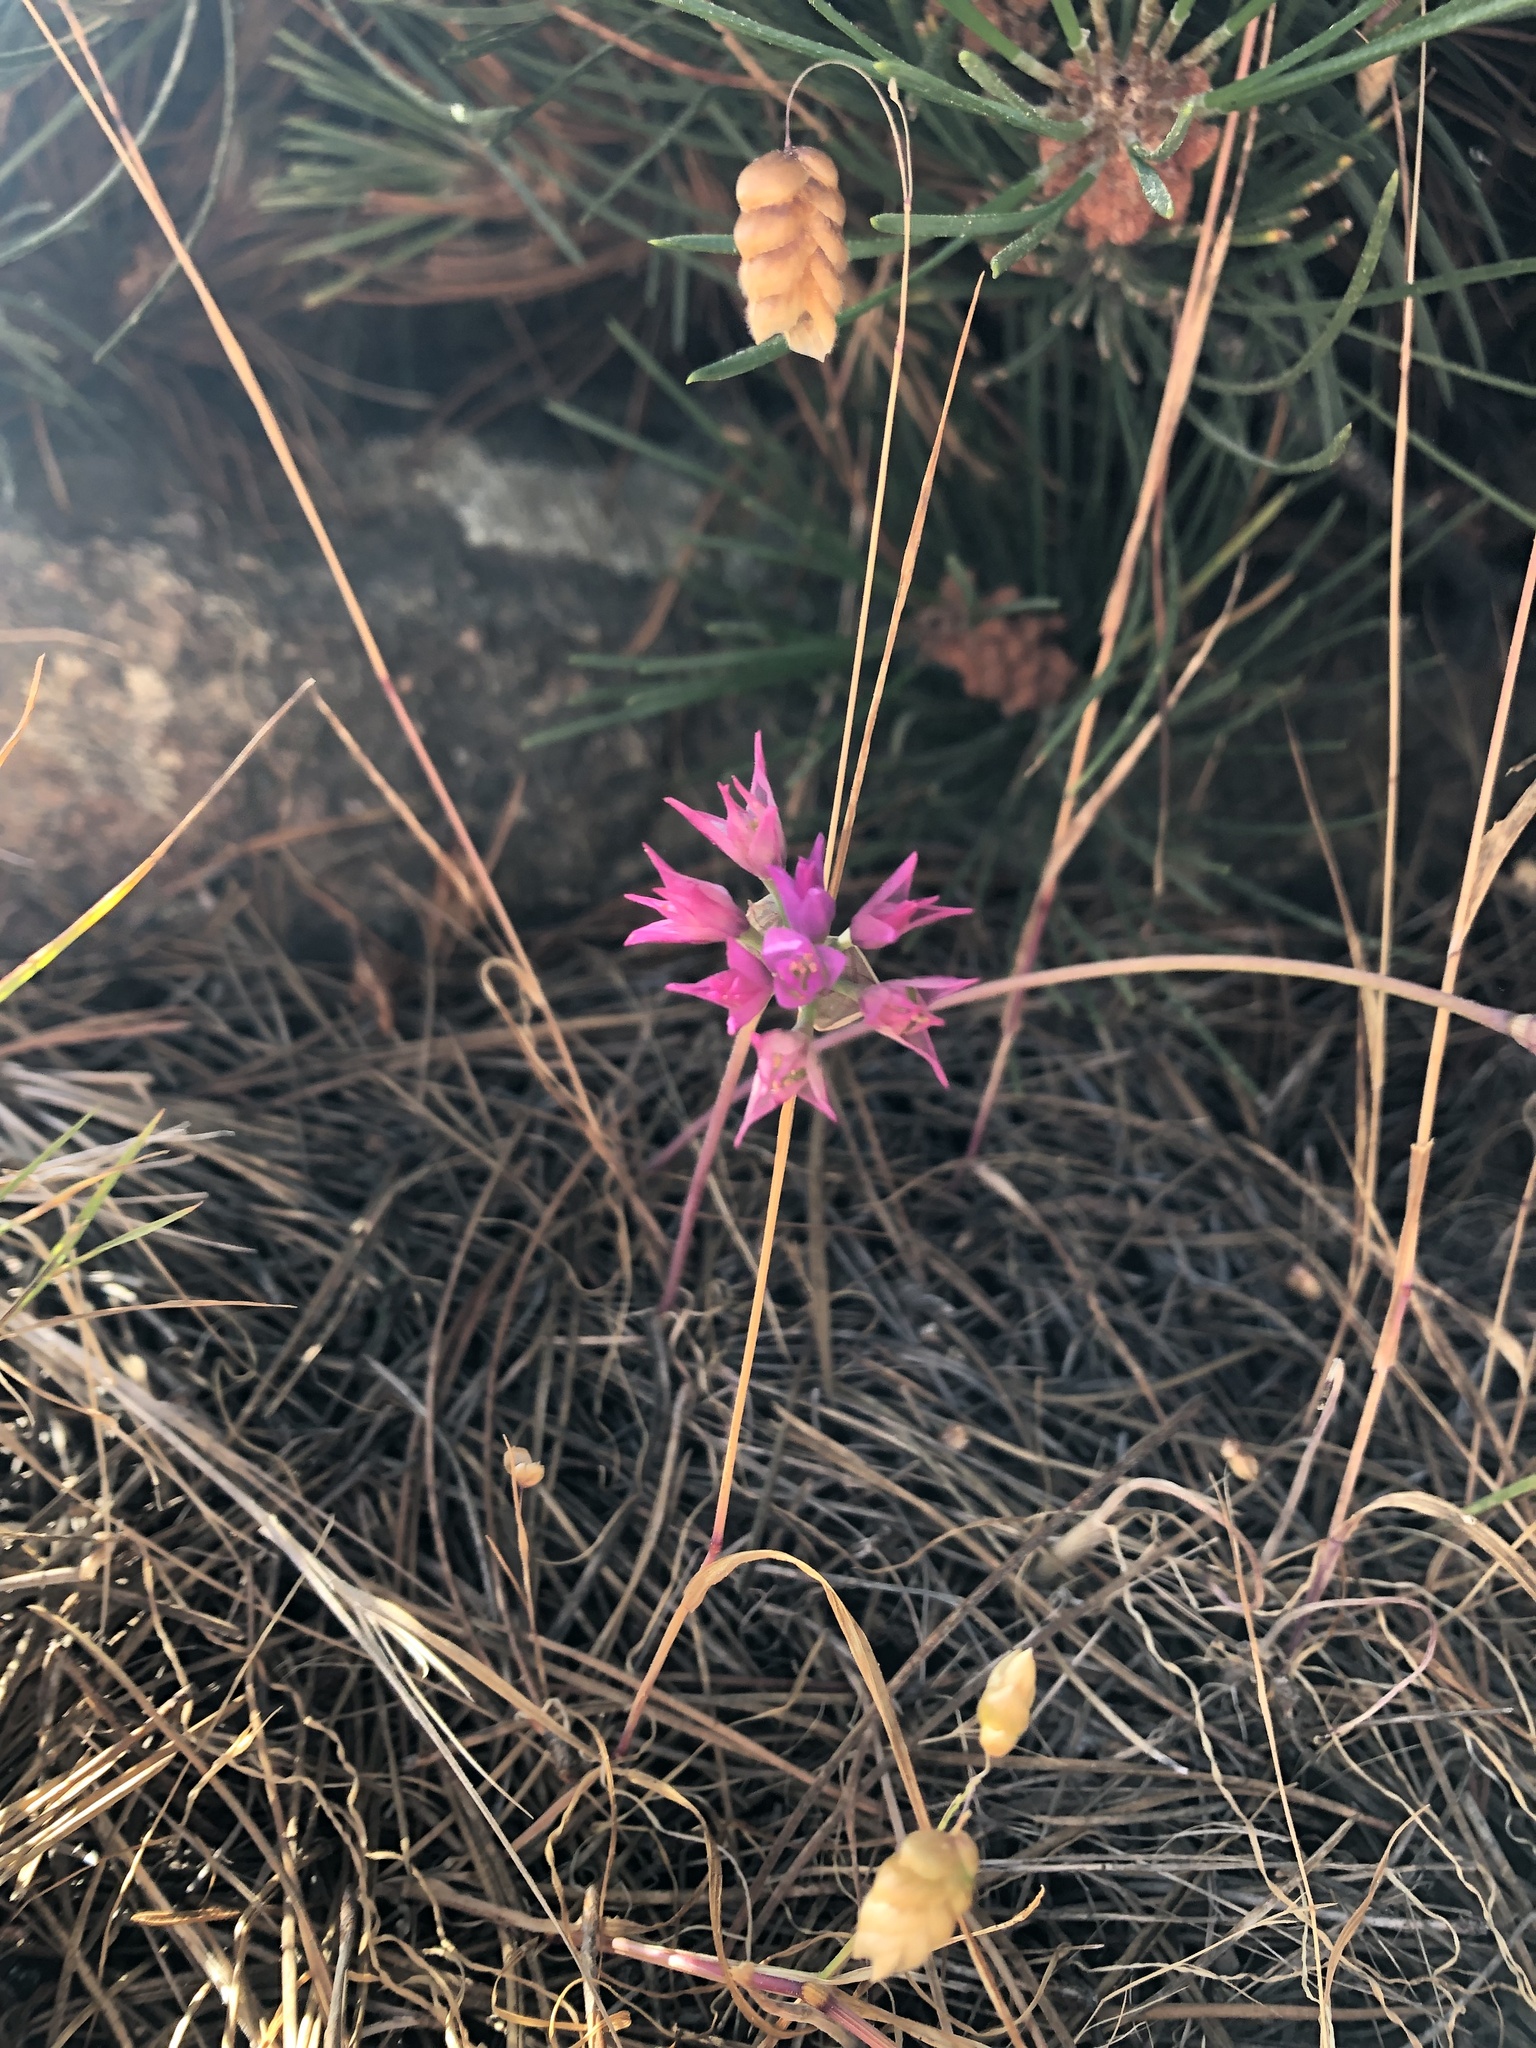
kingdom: Plantae
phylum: Tracheophyta
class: Liliopsida
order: Asparagales
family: Amaryllidaceae
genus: Allium
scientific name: Allium dichlamydeum
